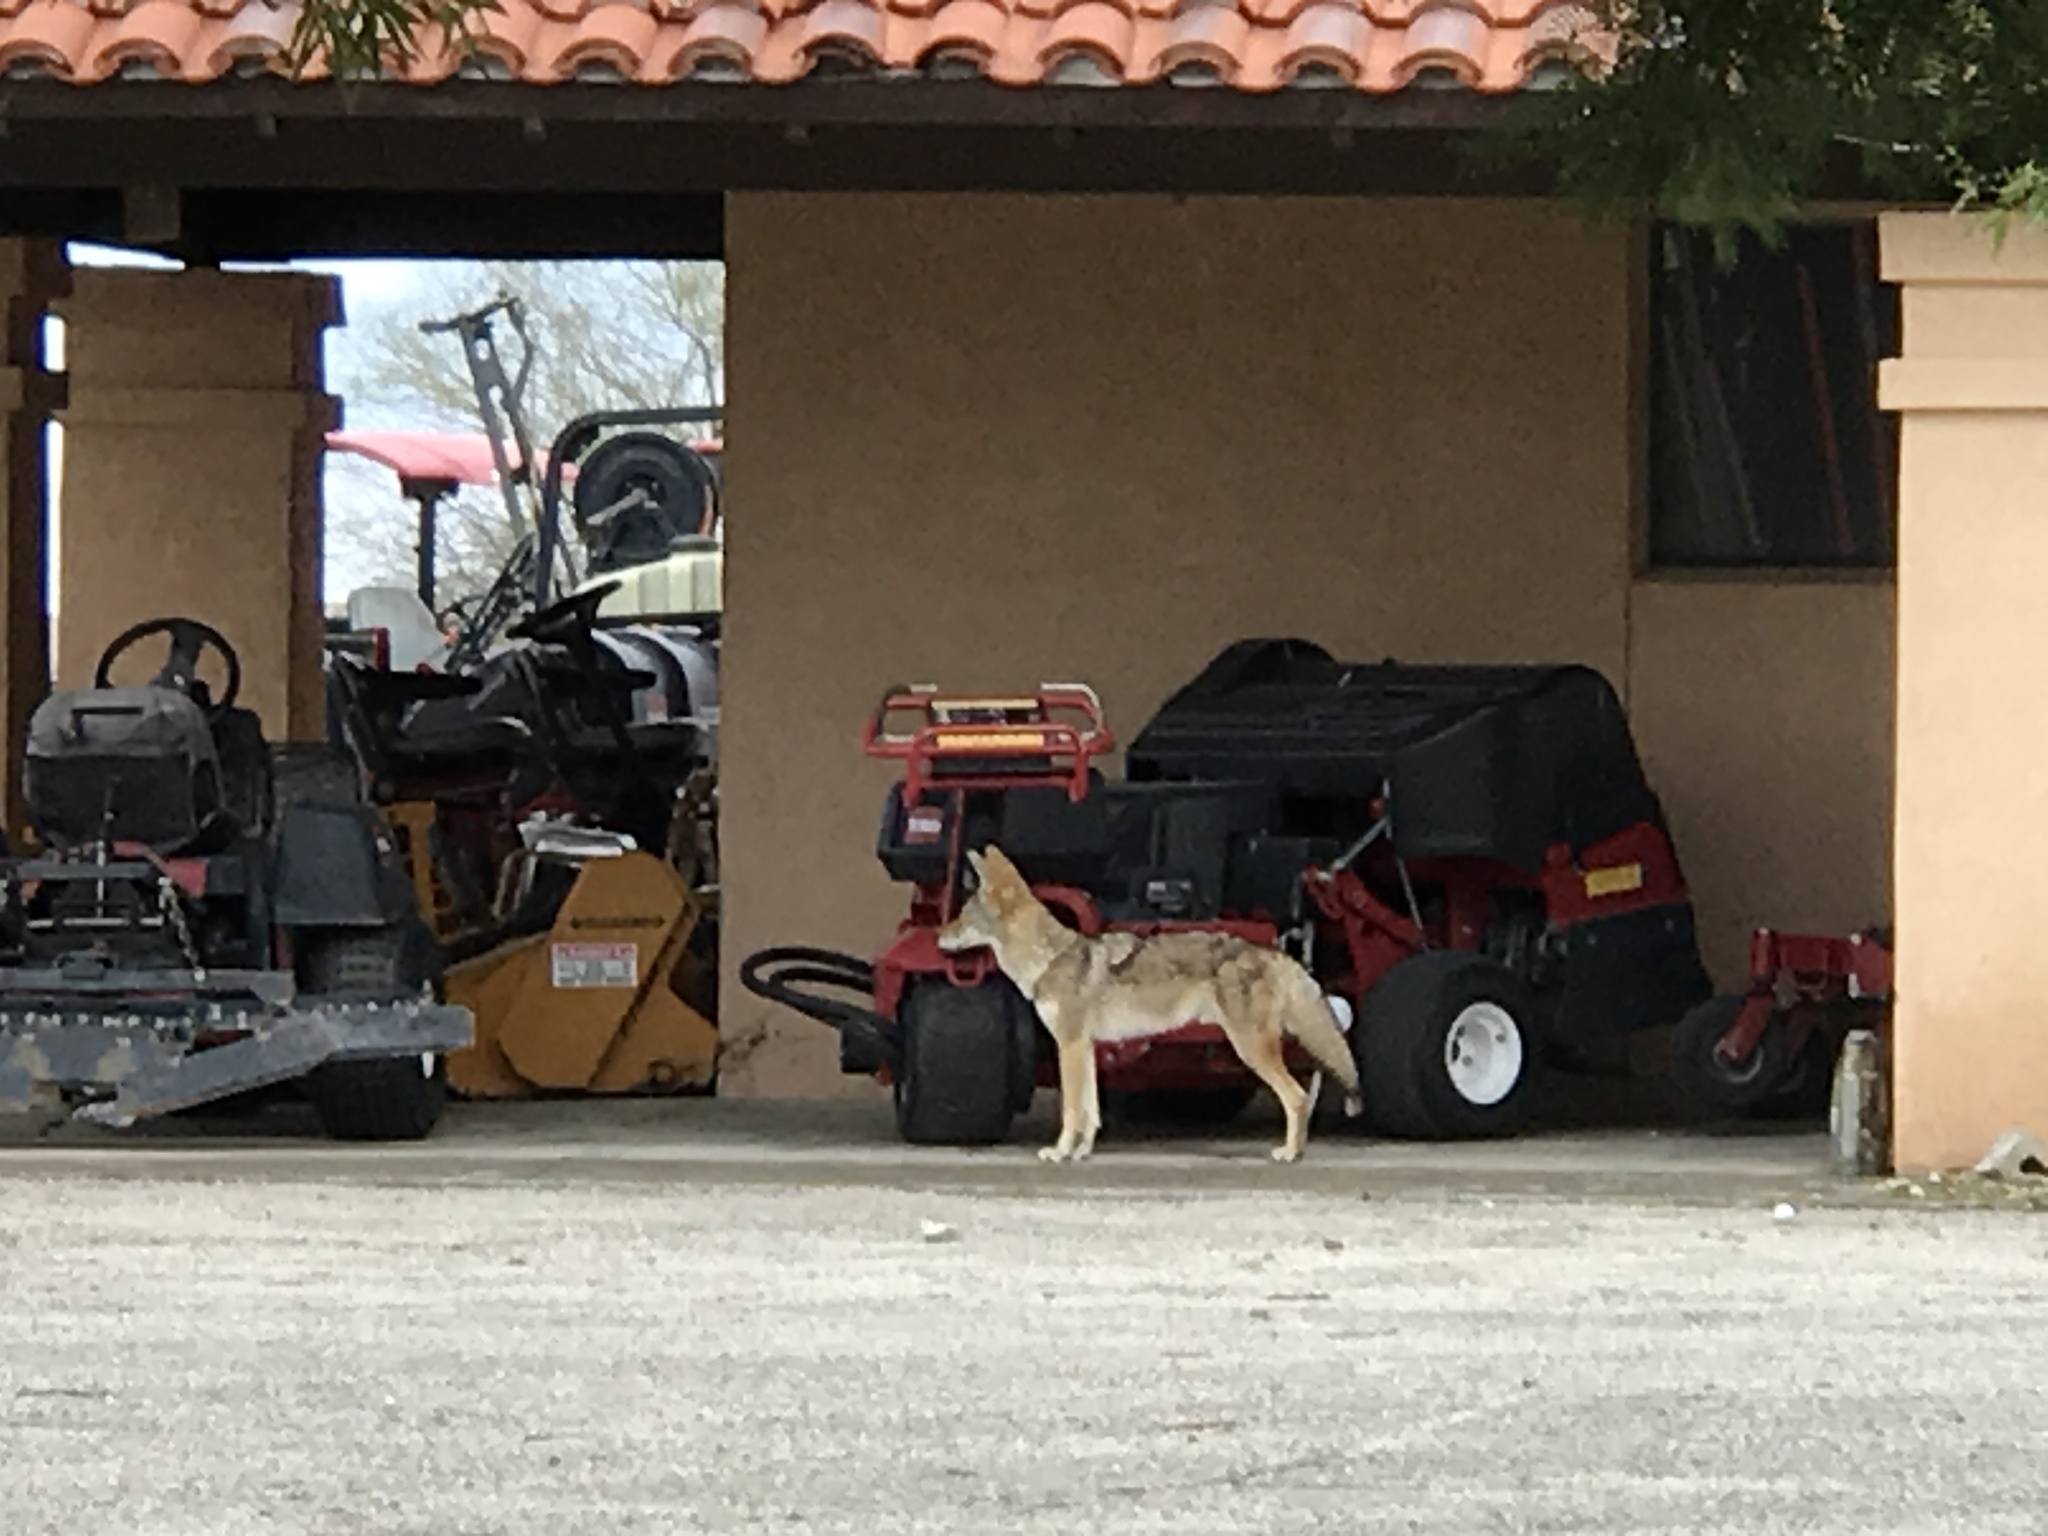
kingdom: Animalia
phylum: Chordata
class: Mammalia
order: Carnivora
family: Canidae
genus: Canis
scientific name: Canis latrans
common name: Coyote
